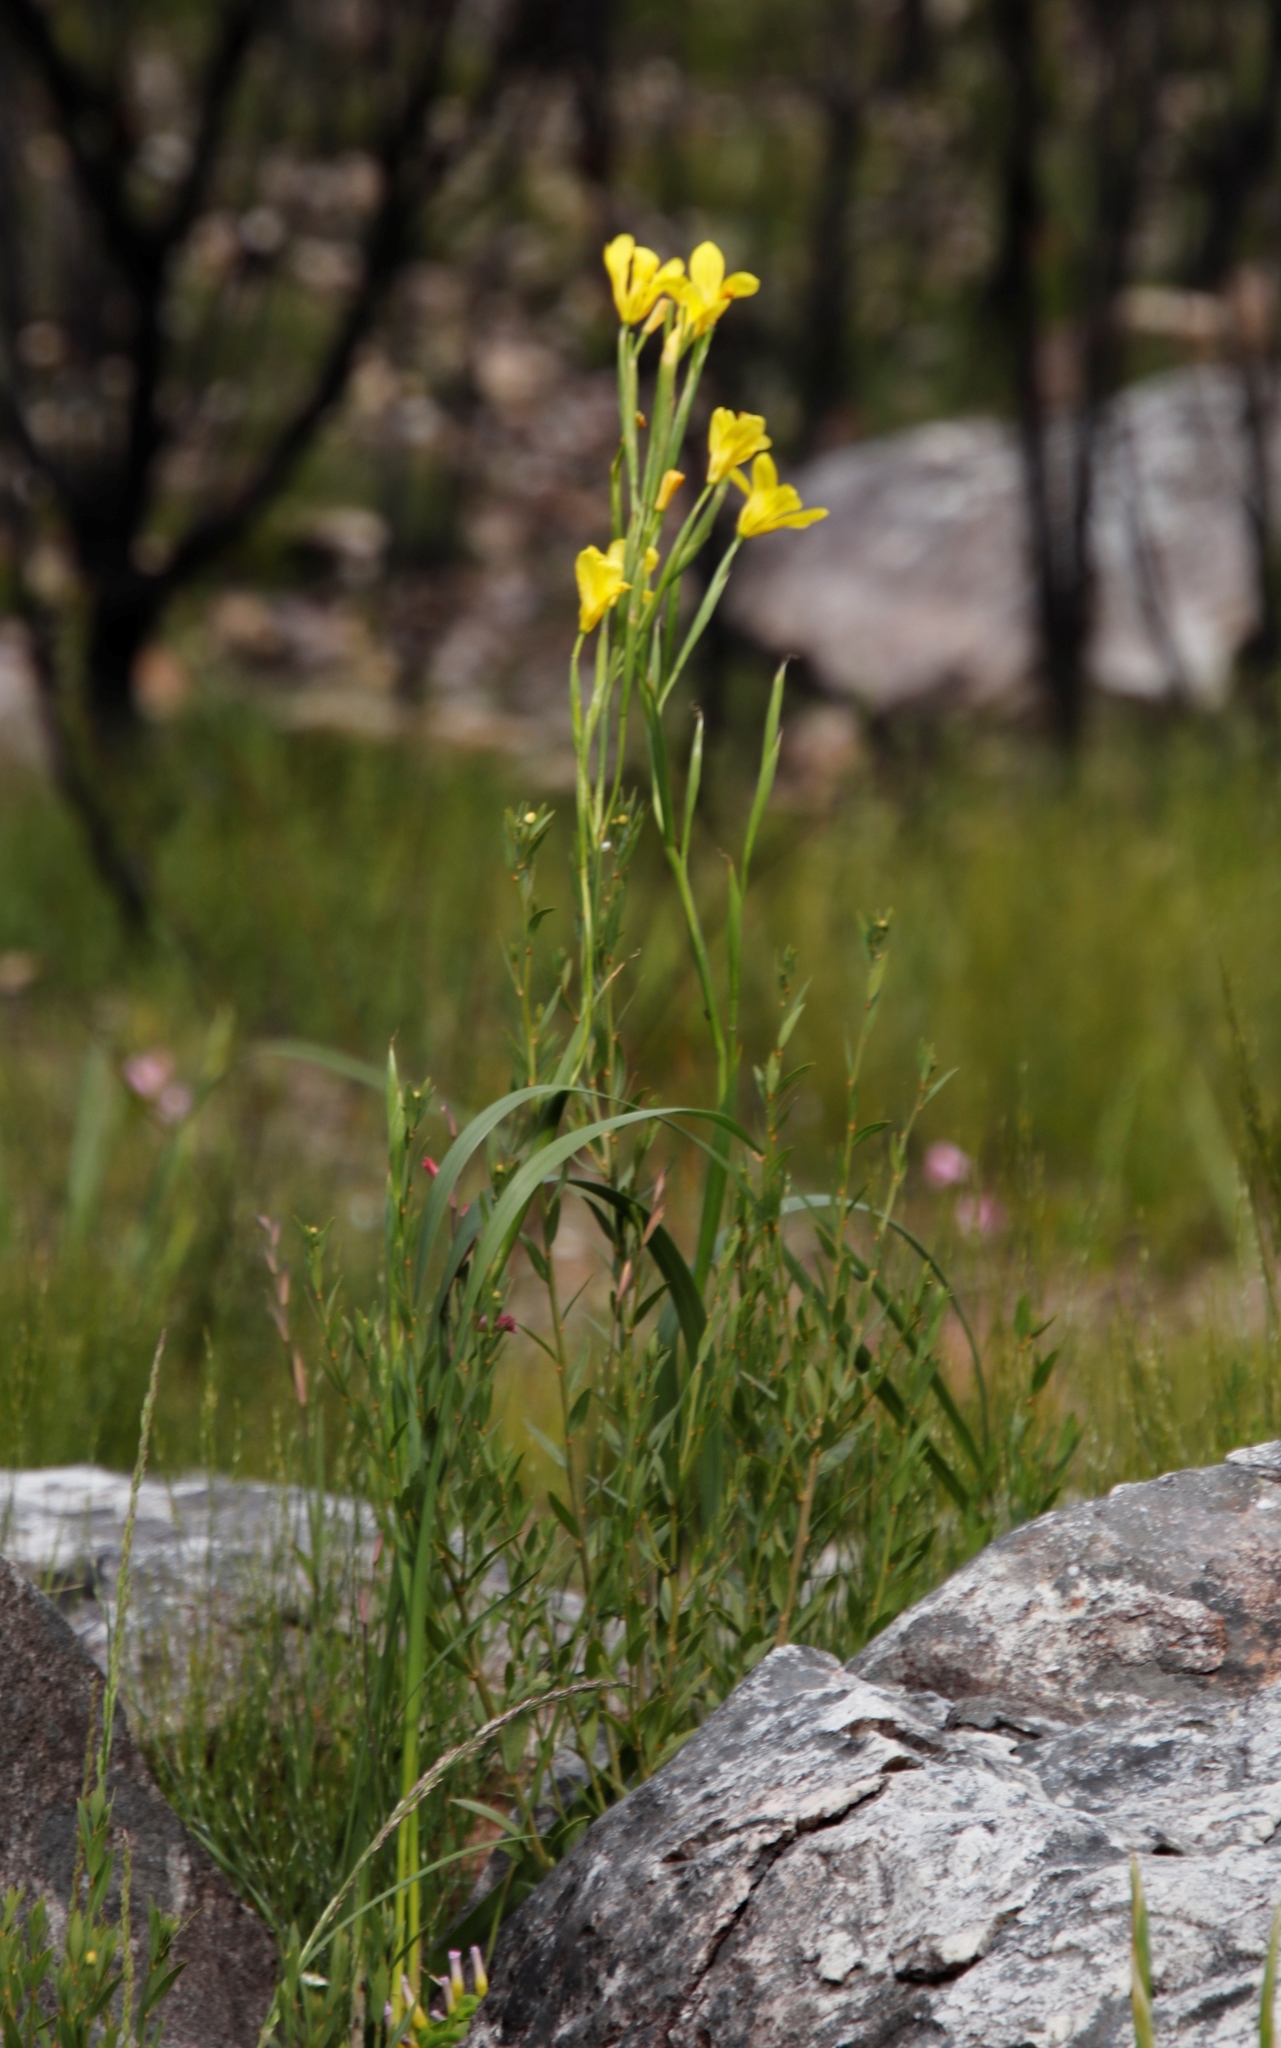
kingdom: Plantae
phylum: Tracheophyta
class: Liliopsida
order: Asparagales
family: Iridaceae
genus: Moraea
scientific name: Moraea ochroleuca
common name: Red tulp
